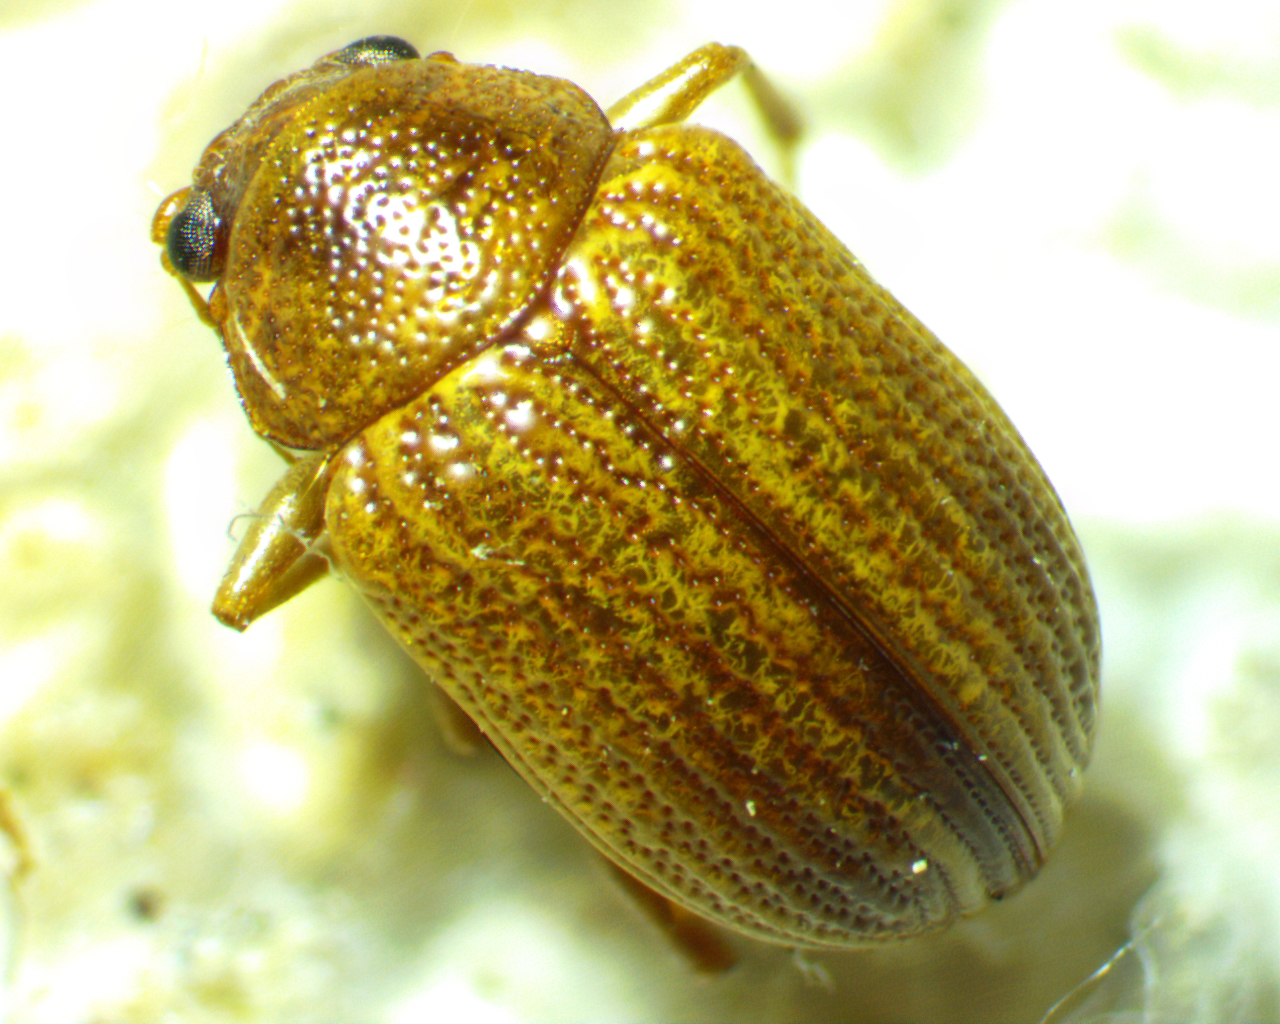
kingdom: Animalia
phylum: Arthropoda
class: Insecta
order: Coleoptera
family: Chrysomelidae
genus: Colaspis
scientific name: Colaspis brunnea
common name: Grape colaspis
